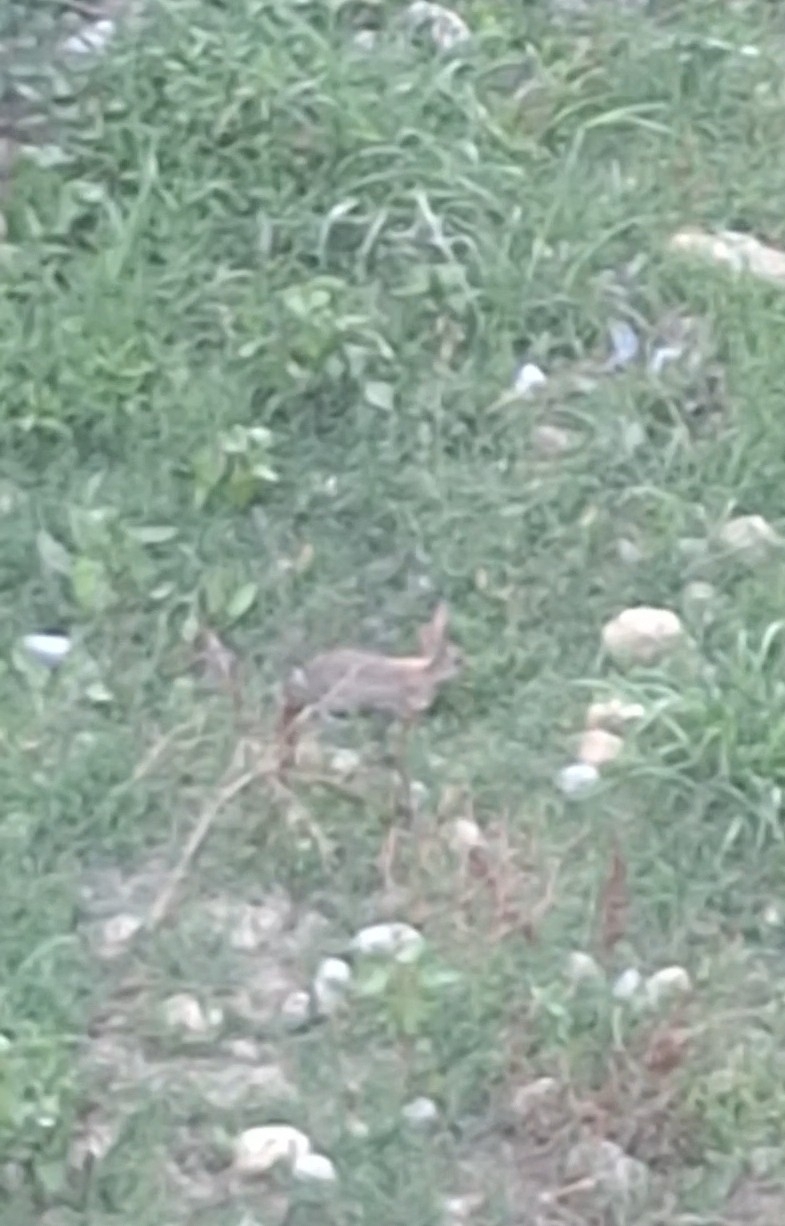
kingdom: Animalia
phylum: Chordata
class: Mammalia
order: Lagomorpha
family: Leporidae
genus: Oryctolagus
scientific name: Oryctolagus cuniculus
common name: European rabbit
